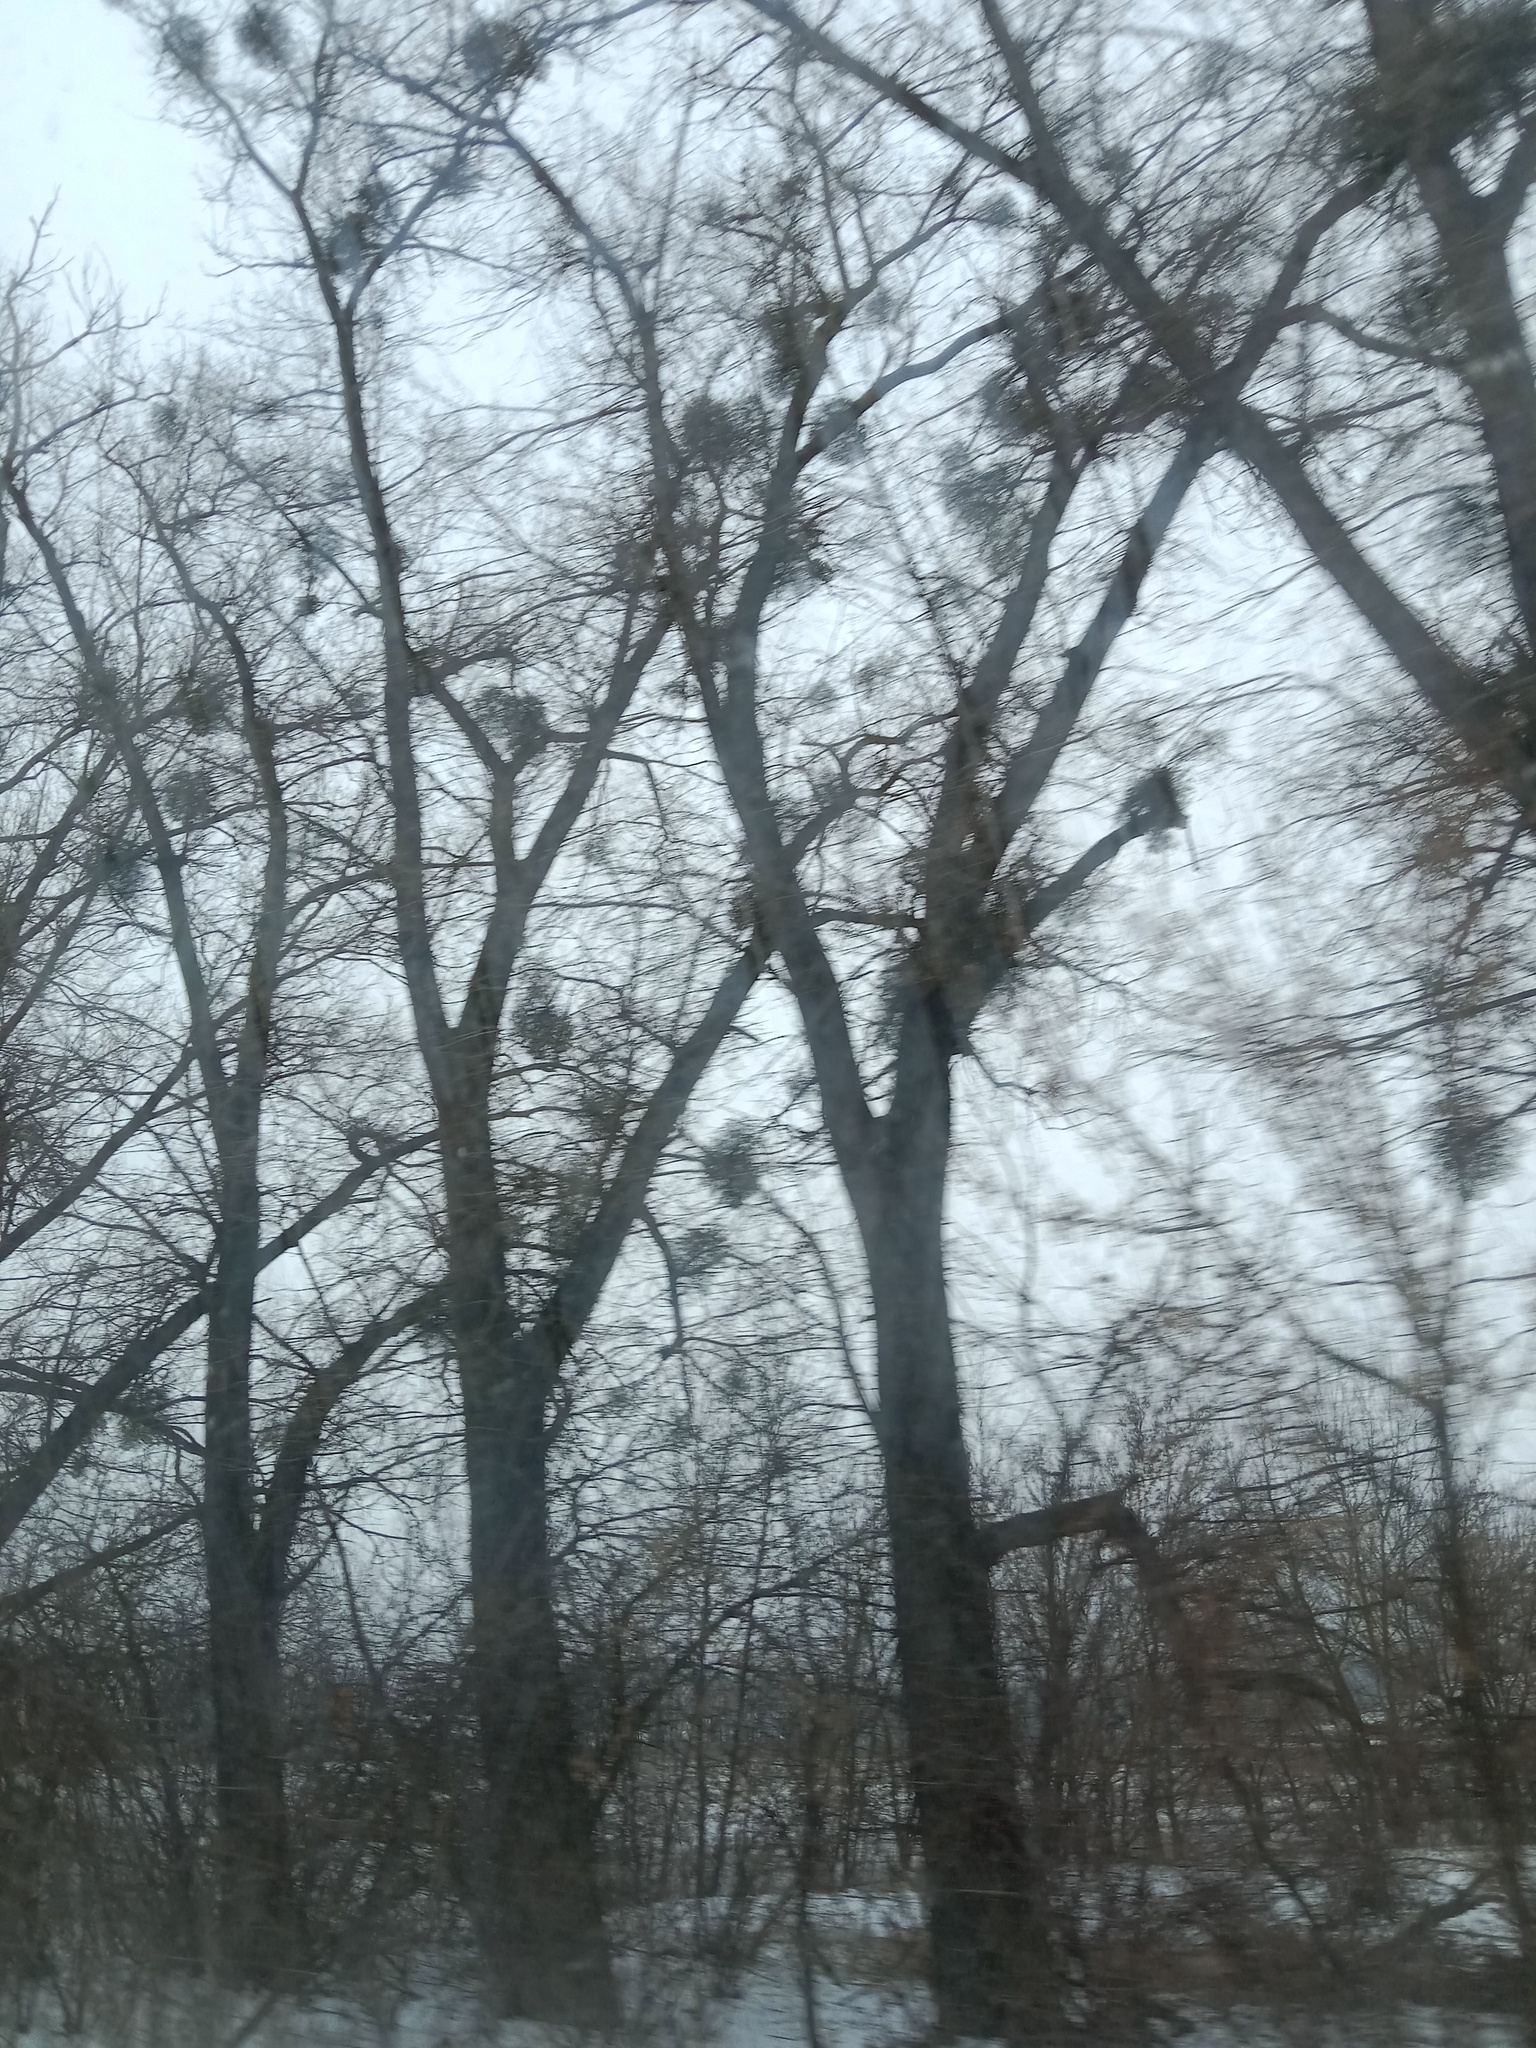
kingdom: Plantae
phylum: Tracheophyta
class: Magnoliopsida
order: Santalales
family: Viscaceae
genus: Viscum
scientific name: Viscum album
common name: Mistletoe
